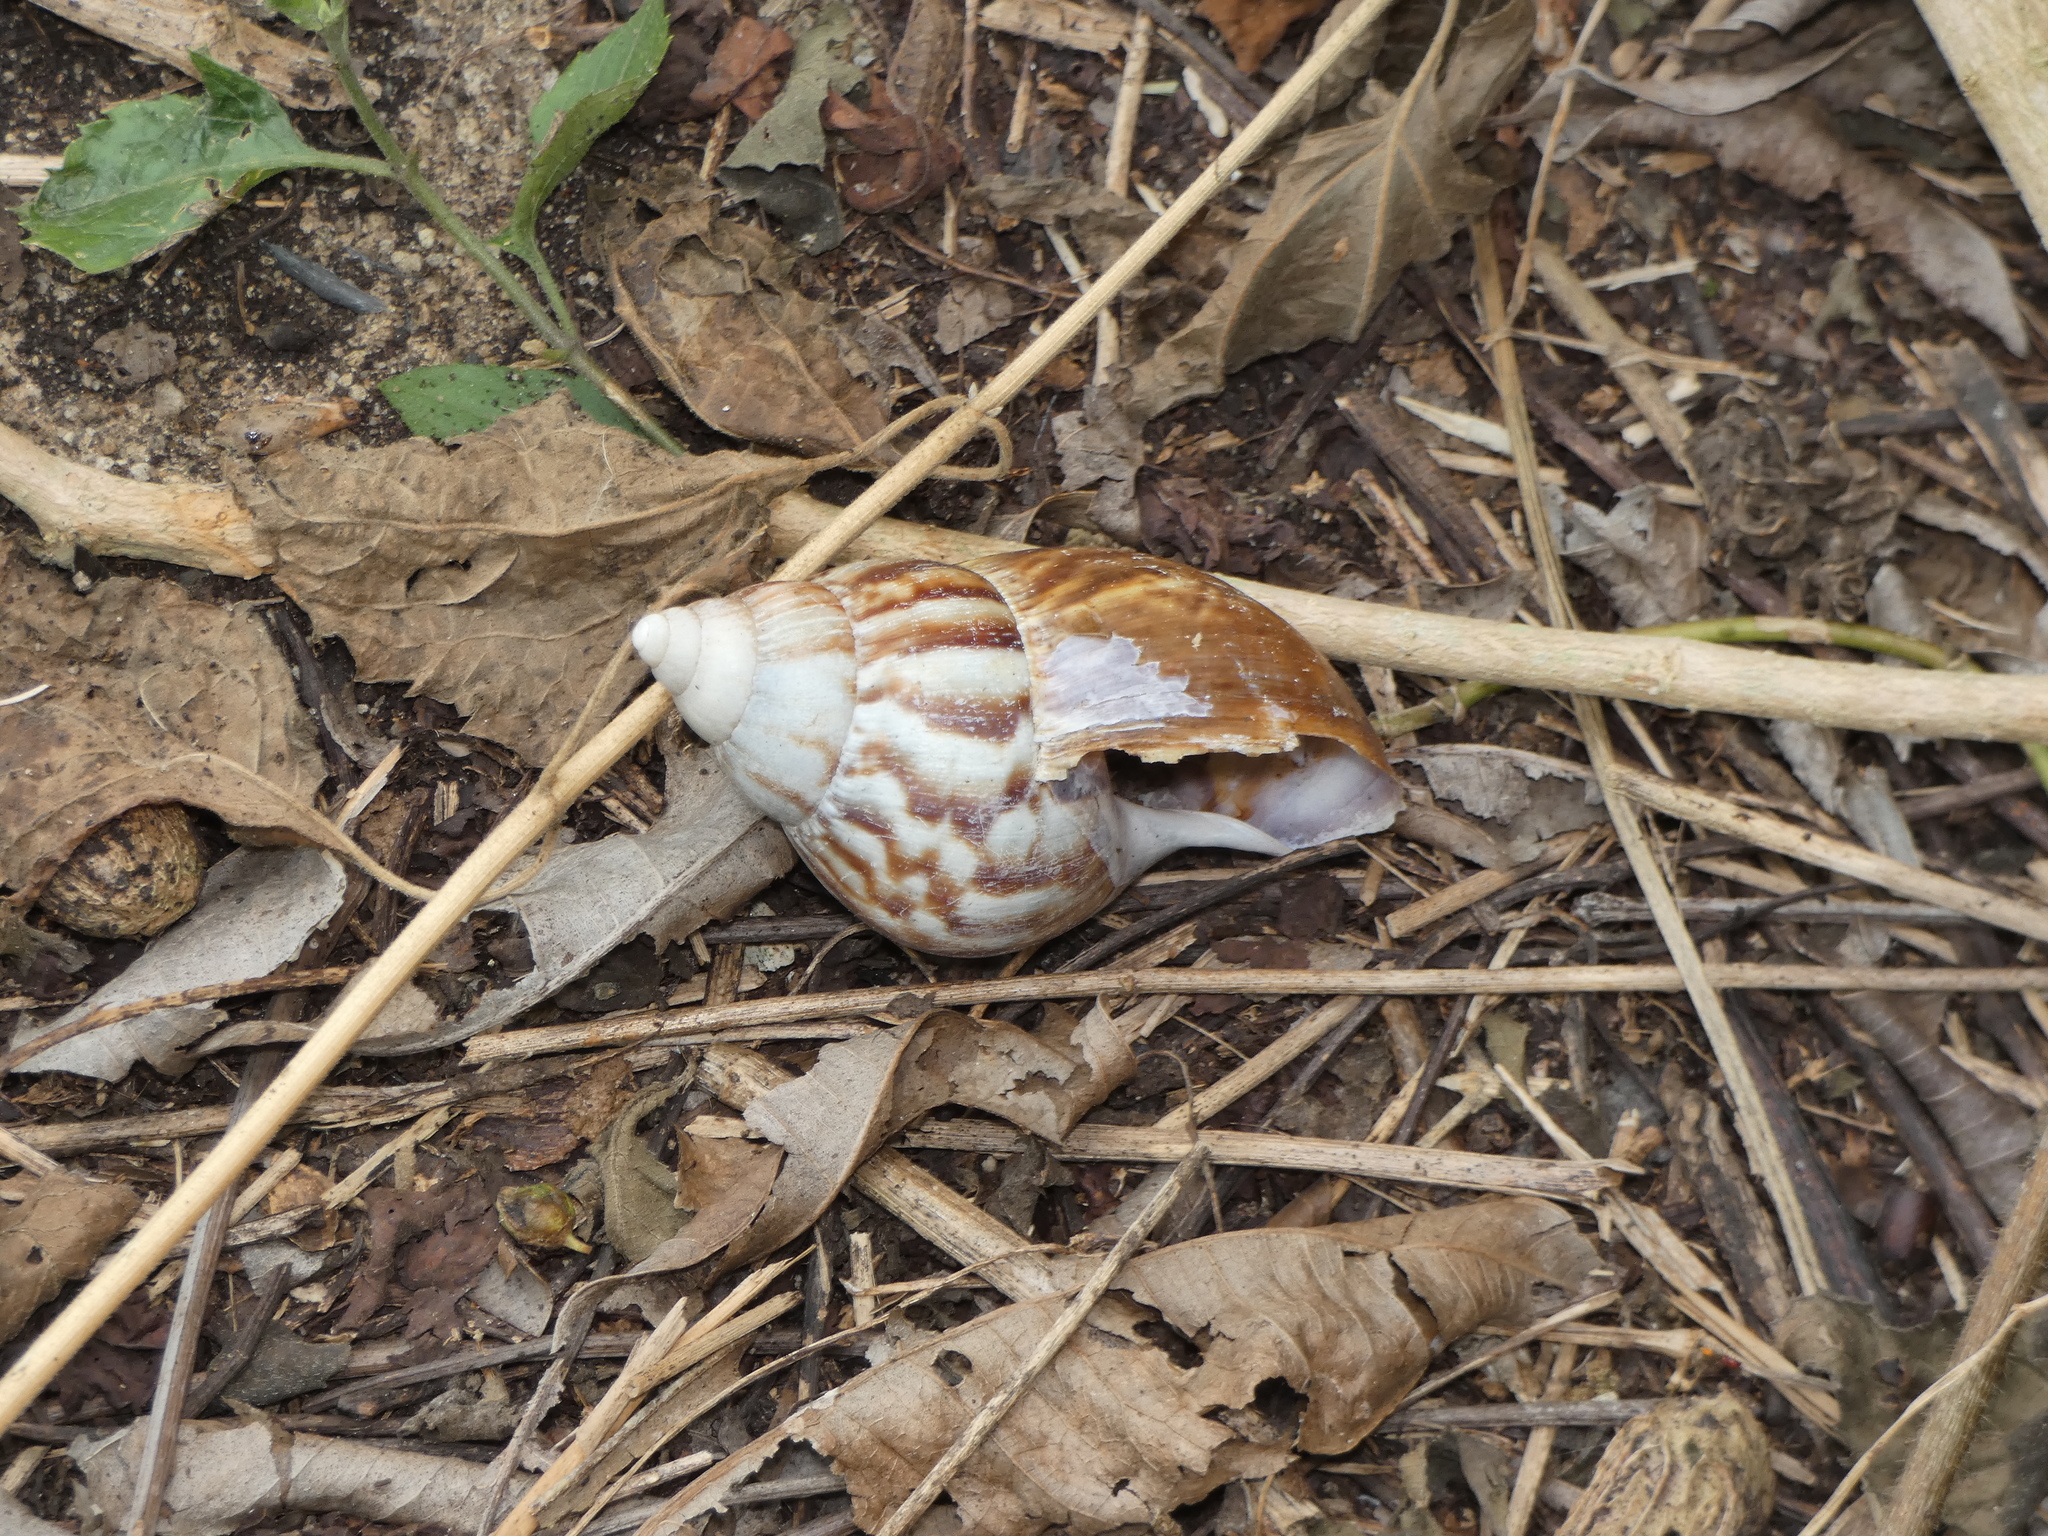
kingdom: Animalia
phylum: Mollusca
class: Gastropoda
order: Stylommatophora
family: Achatinidae
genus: Lissachatina
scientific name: Lissachatina fulica
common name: Giant african snail
